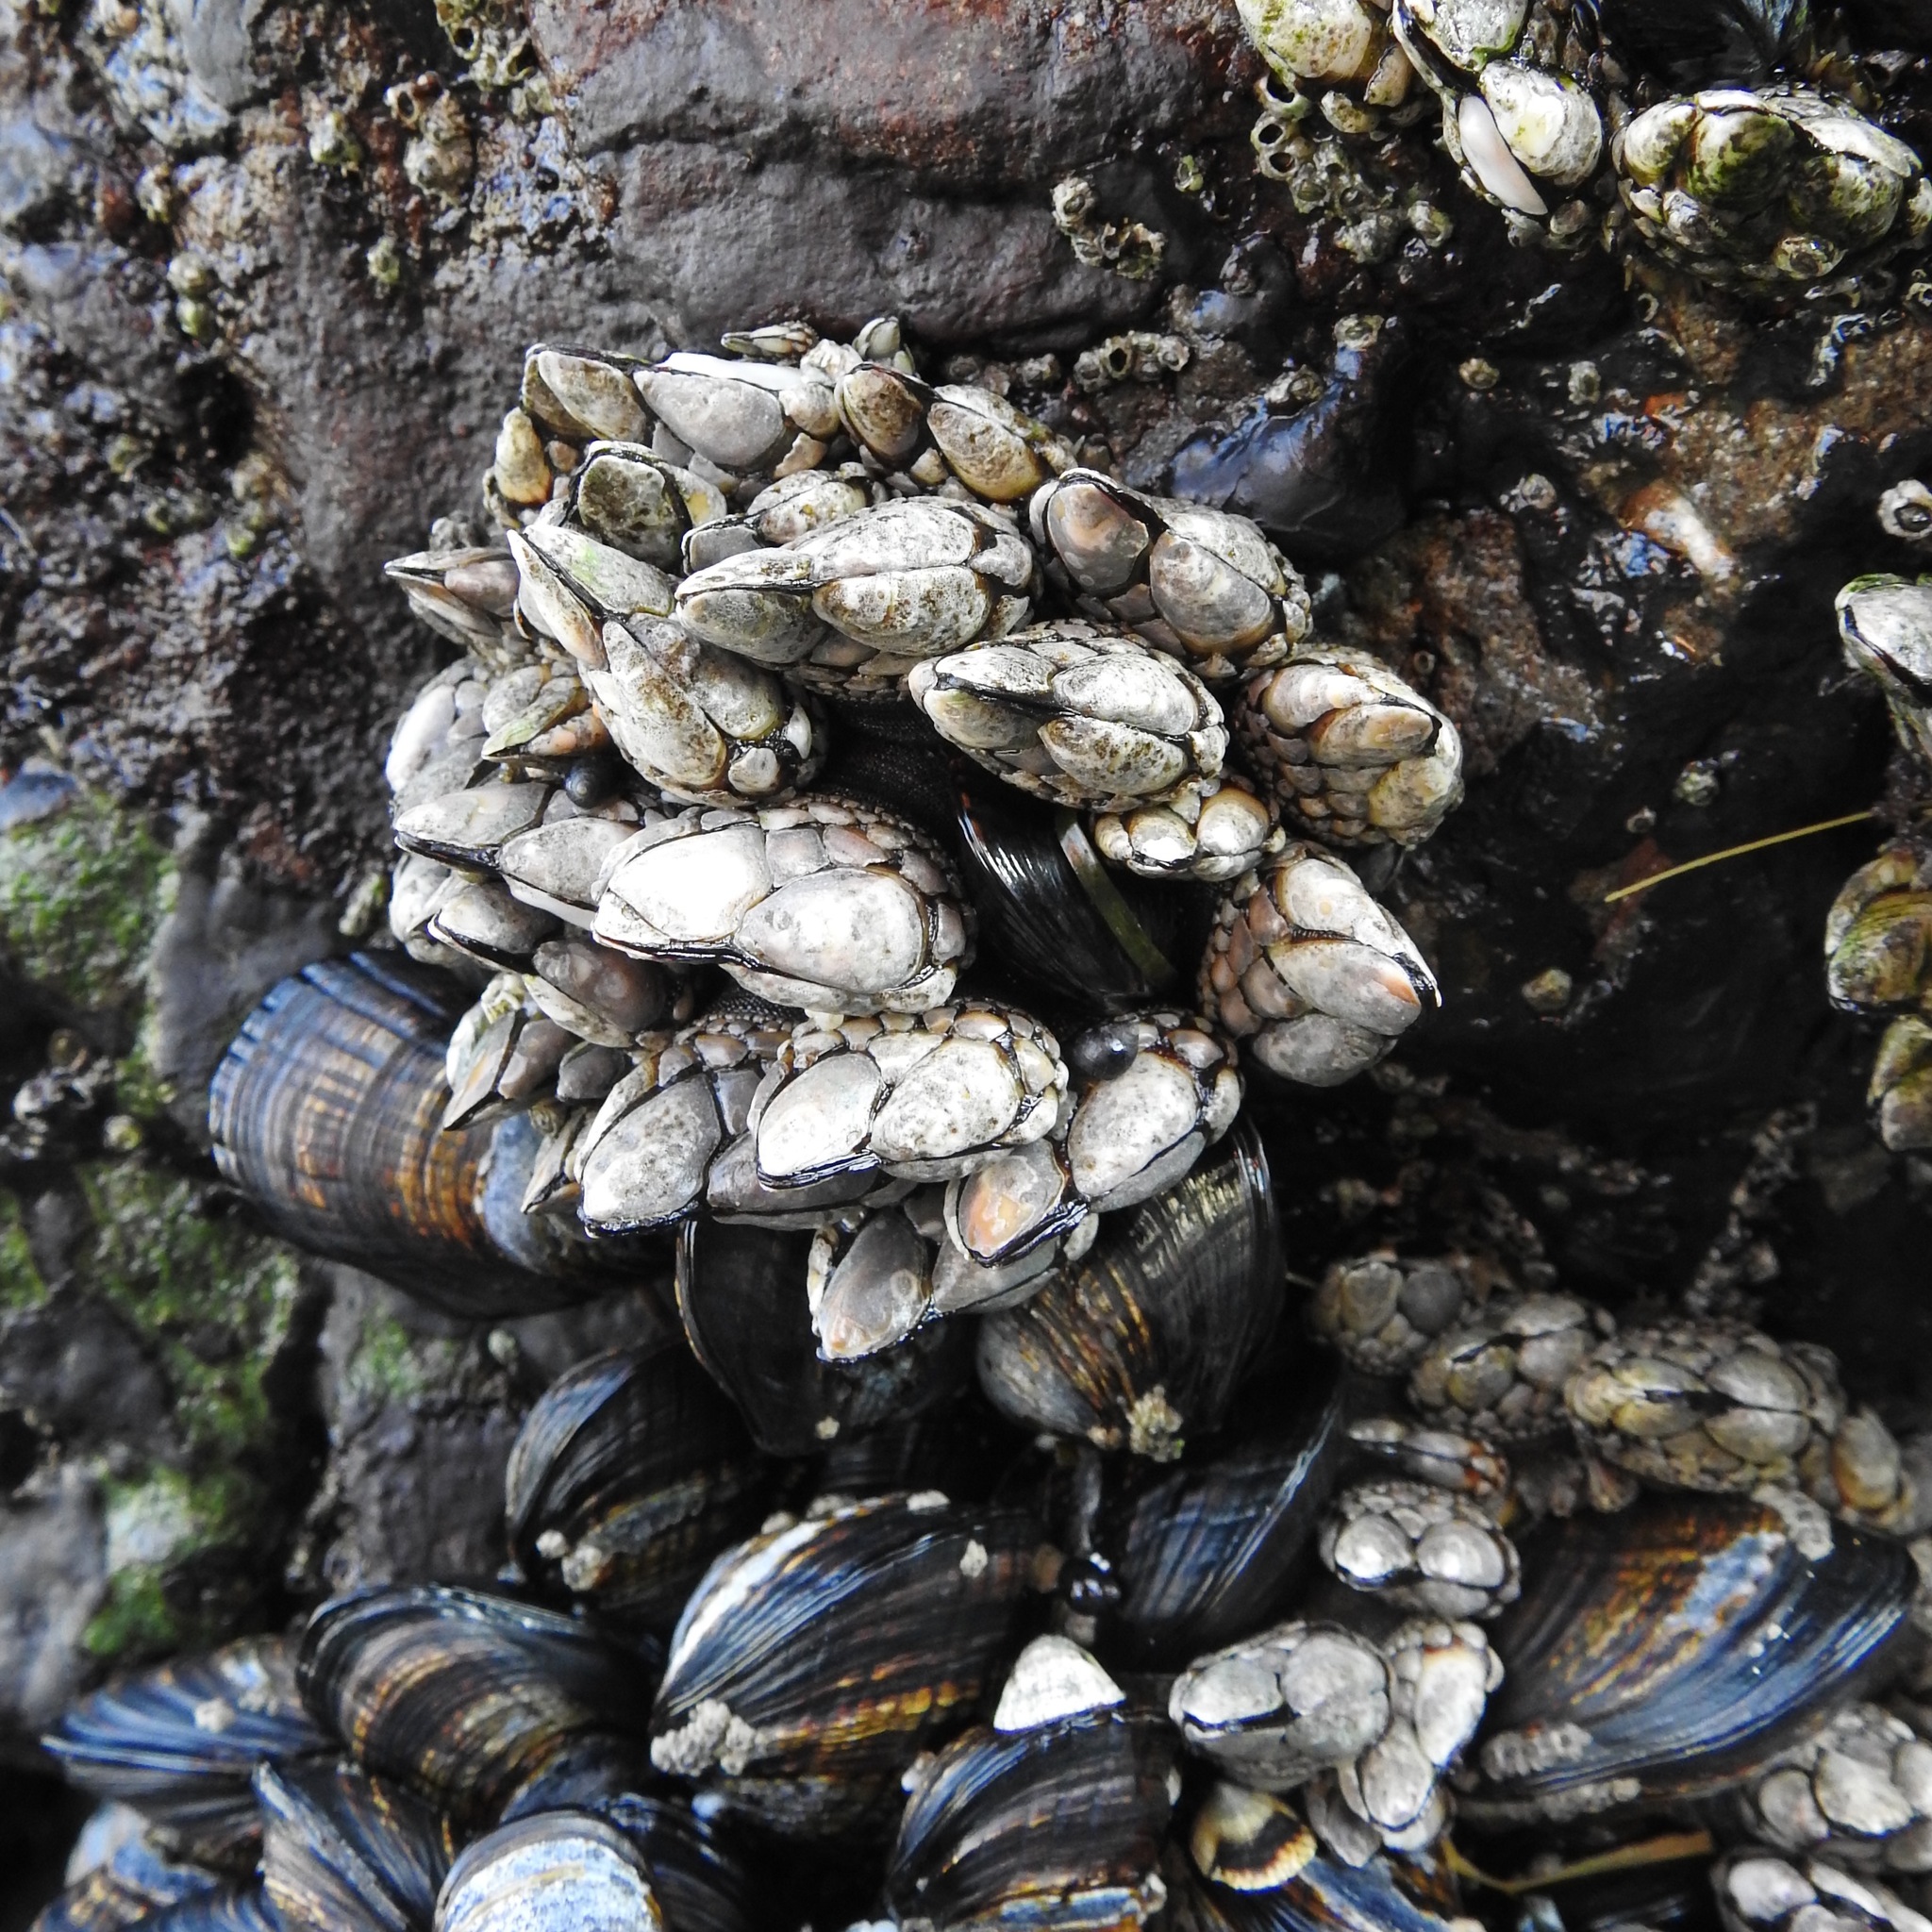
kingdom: Animalia
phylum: Arthropoda
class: Maxillopoda
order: Pedunculata
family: Pollicipedidae
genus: Pollicipes
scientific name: Pollicipes polymerus
